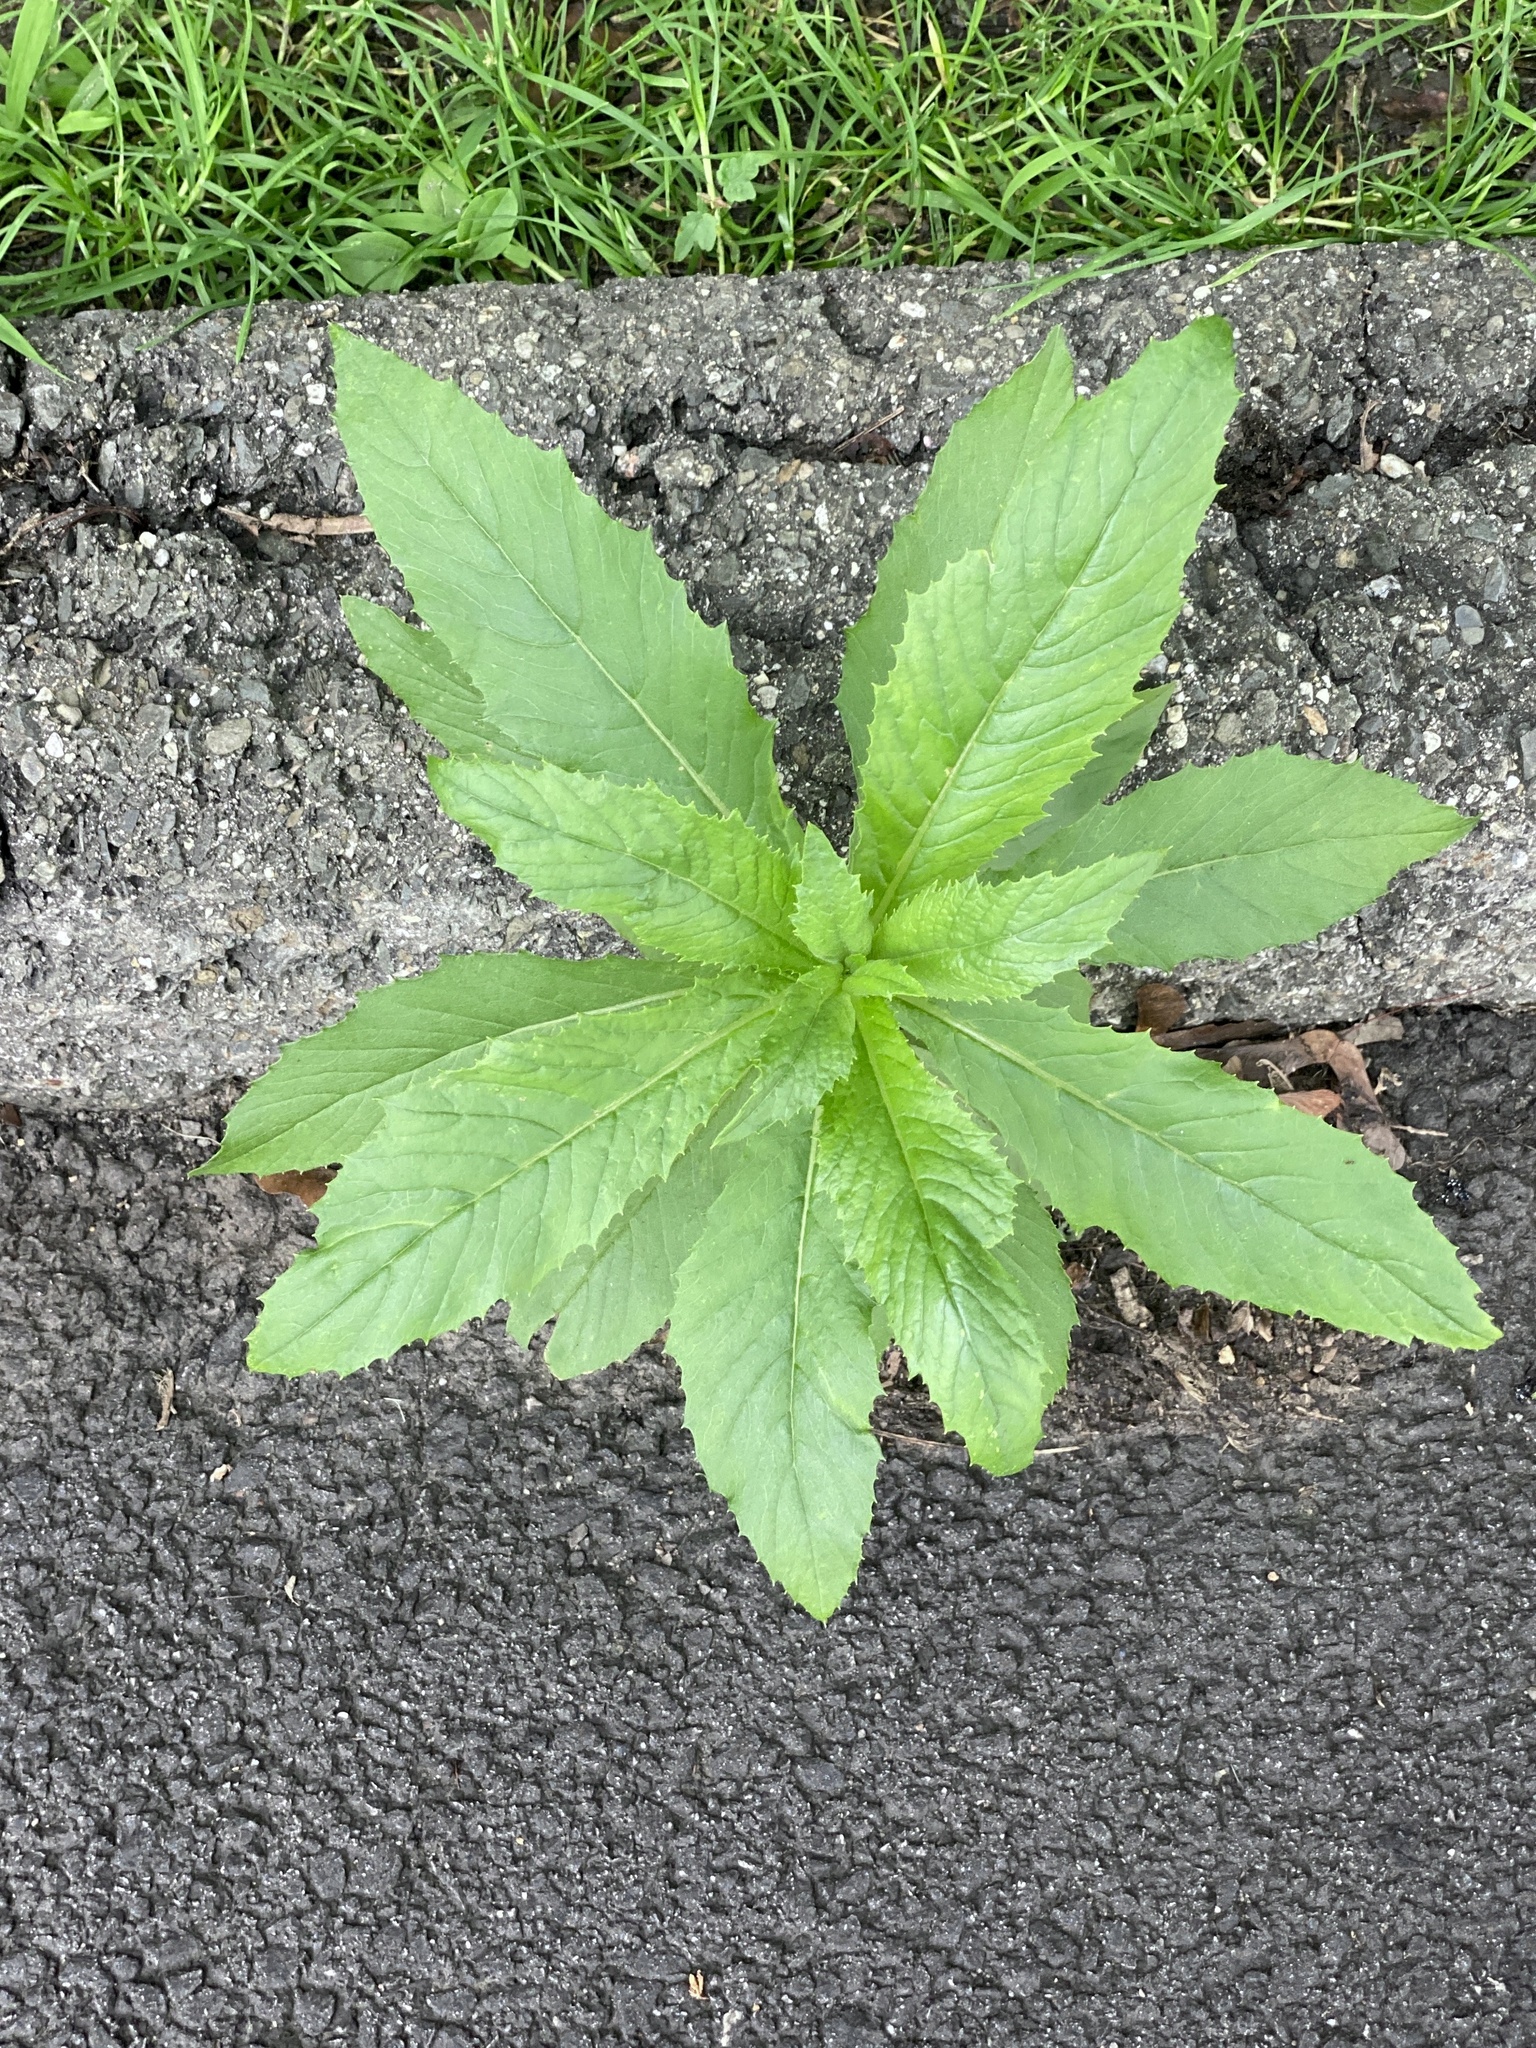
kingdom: Plantae
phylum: Tracheophyta
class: Magnoliopsida
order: Asterales
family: Asteraceae
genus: Erechtites
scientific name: Erechtites hieraciifolius
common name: American burnweed
